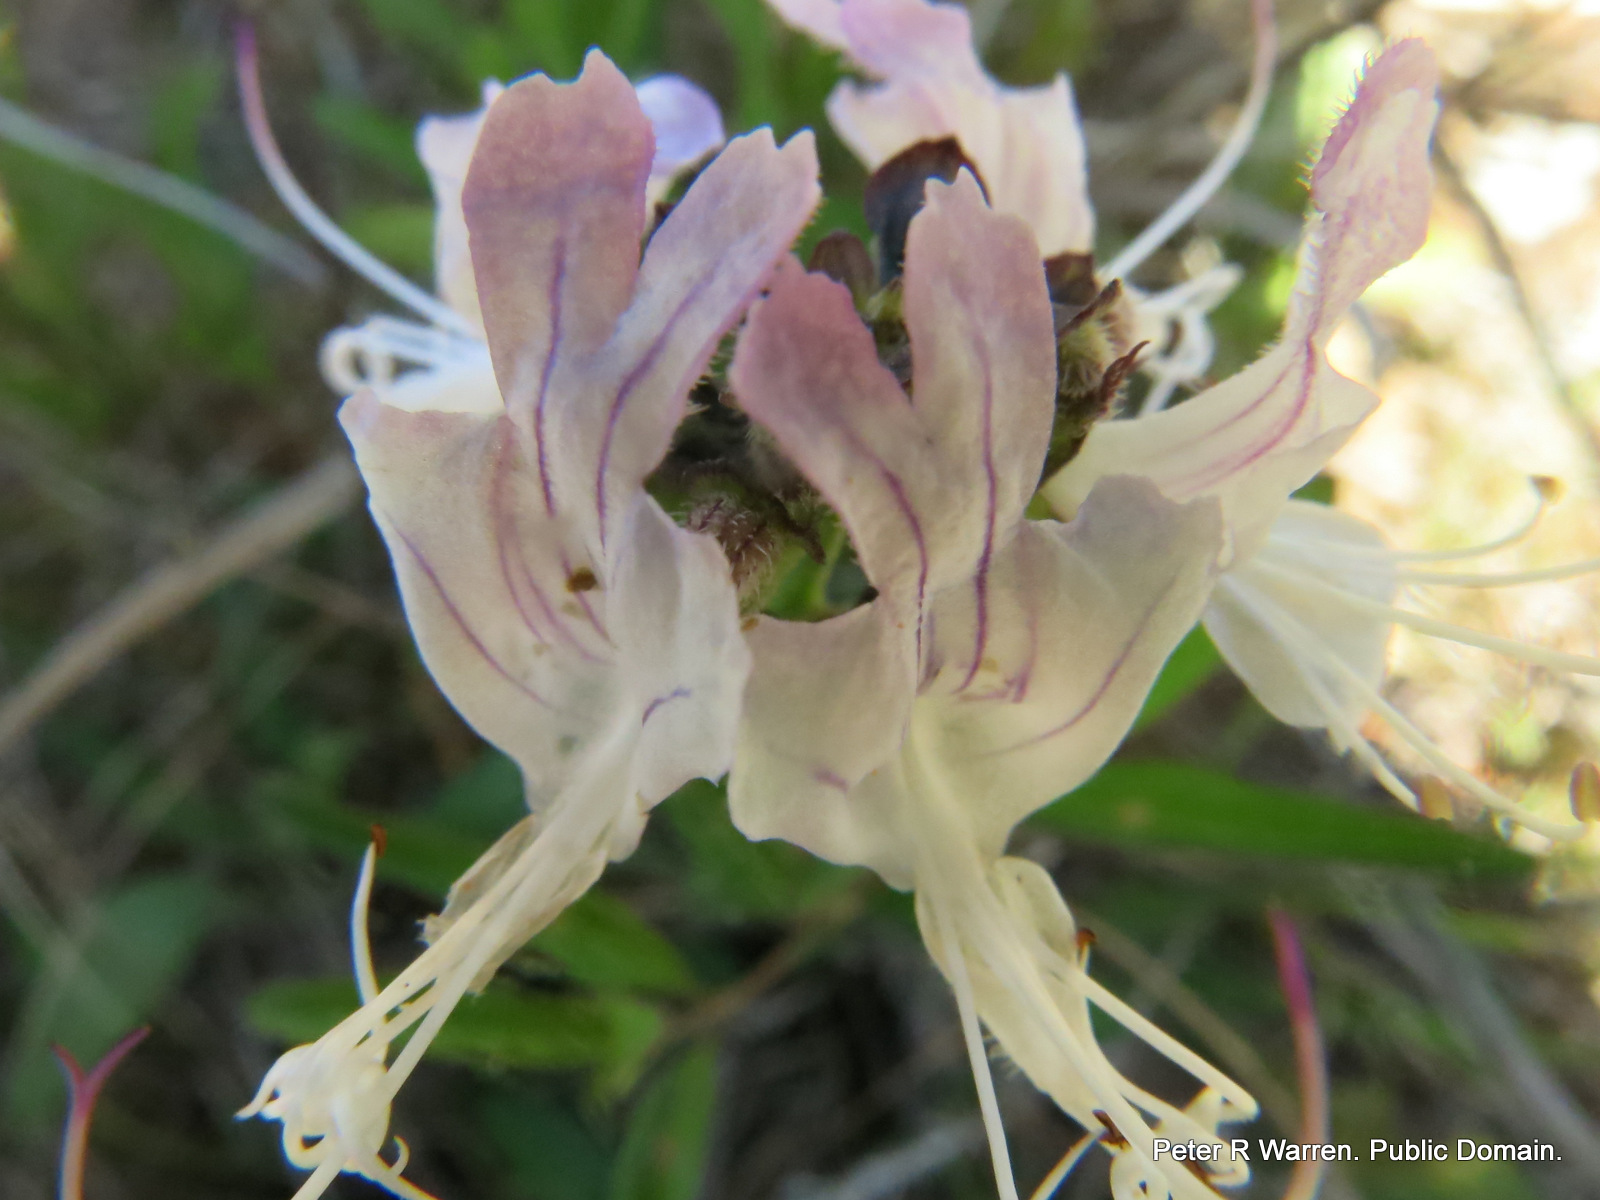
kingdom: Plantae
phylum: Tracheophyta
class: Magnoliopsida
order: Lamiales
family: Lamiaceae
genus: Ocimum
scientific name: Ocimum obovatum
